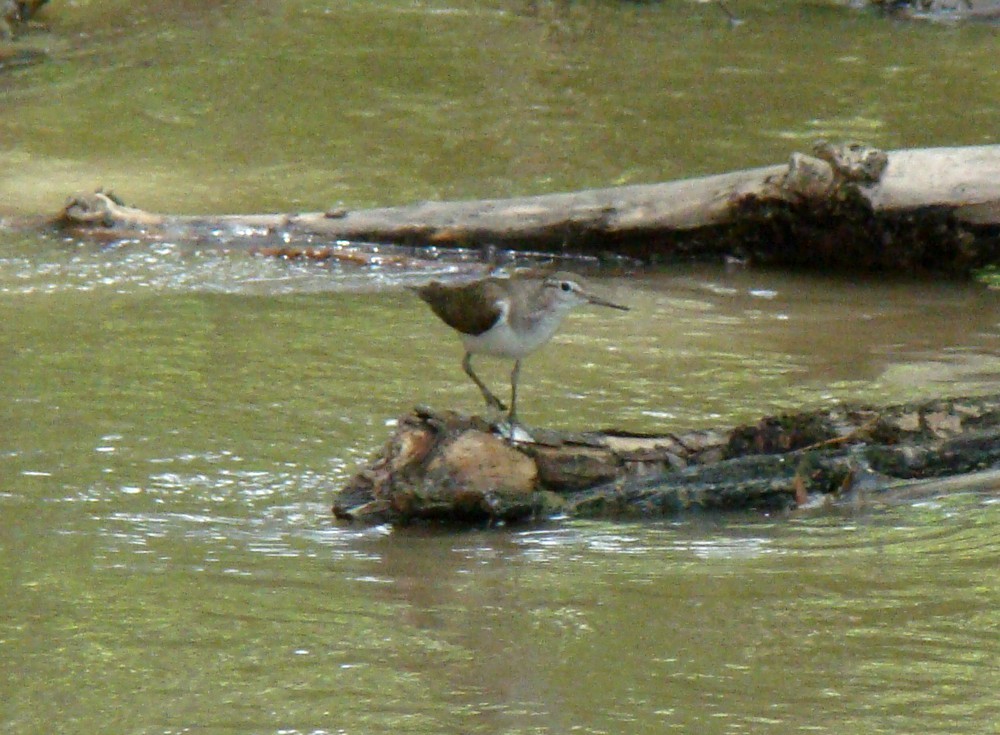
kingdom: Animalia
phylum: Chordata
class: Aves
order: Charadriiformes
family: Scolopacidae
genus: Actitis
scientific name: Actitis hypoleucos
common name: Common sandpiper
